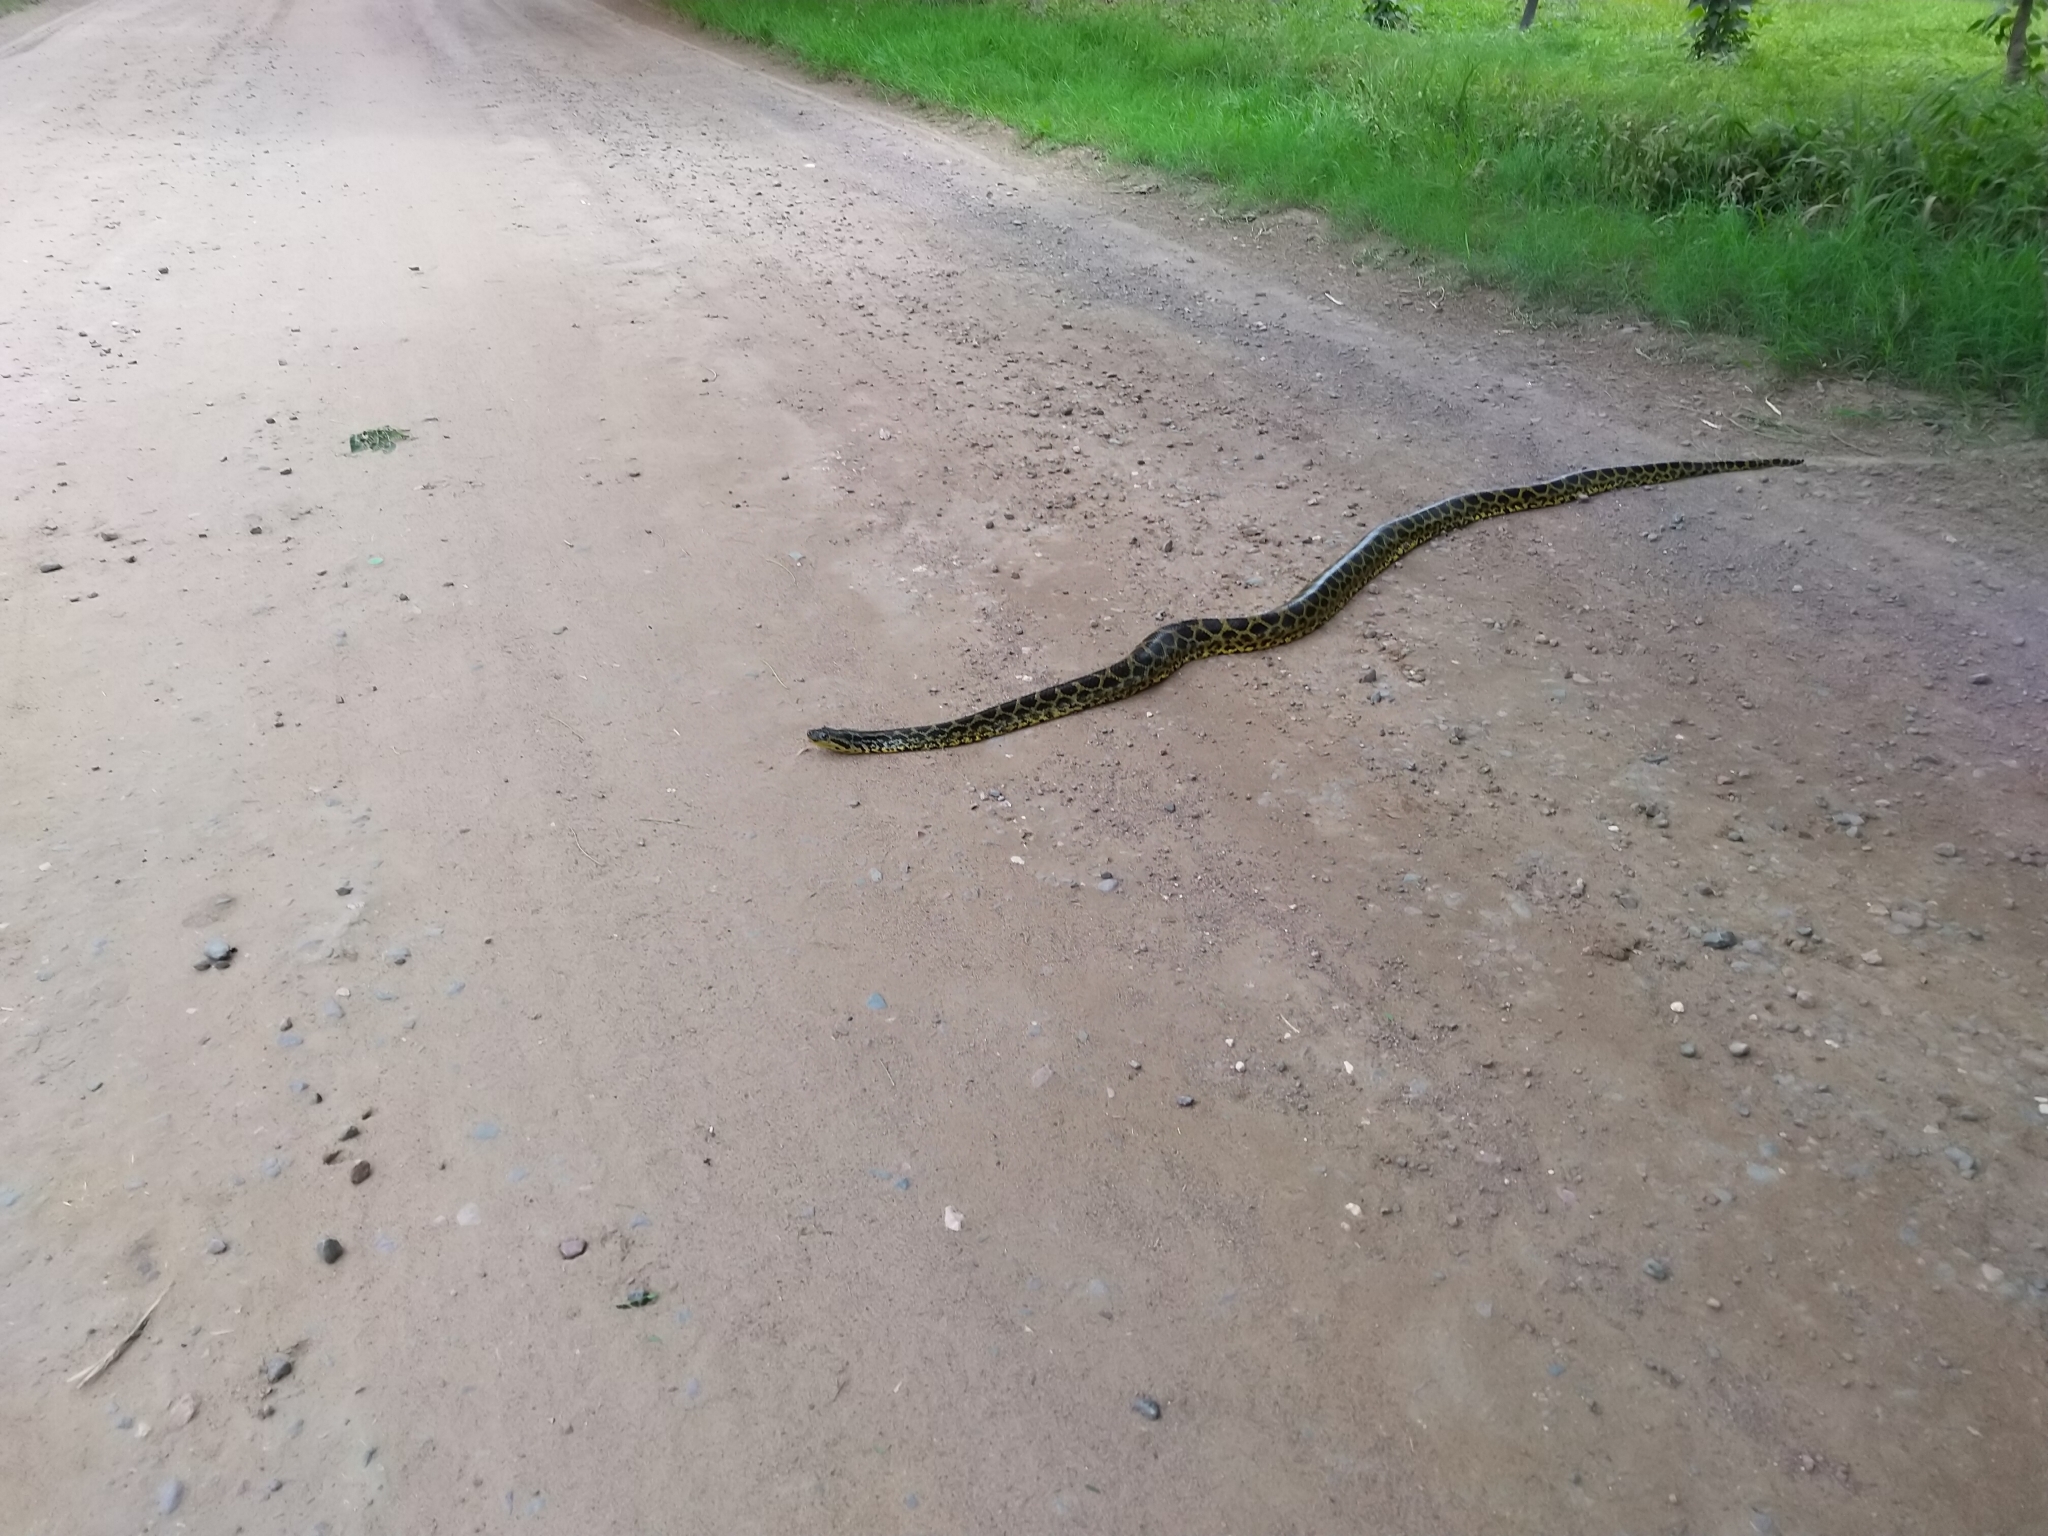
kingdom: Animalia
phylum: Chordata
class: Squamata
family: Boidae
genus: Eunectes
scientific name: Eunectes notaeus
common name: Yellow anaconda
